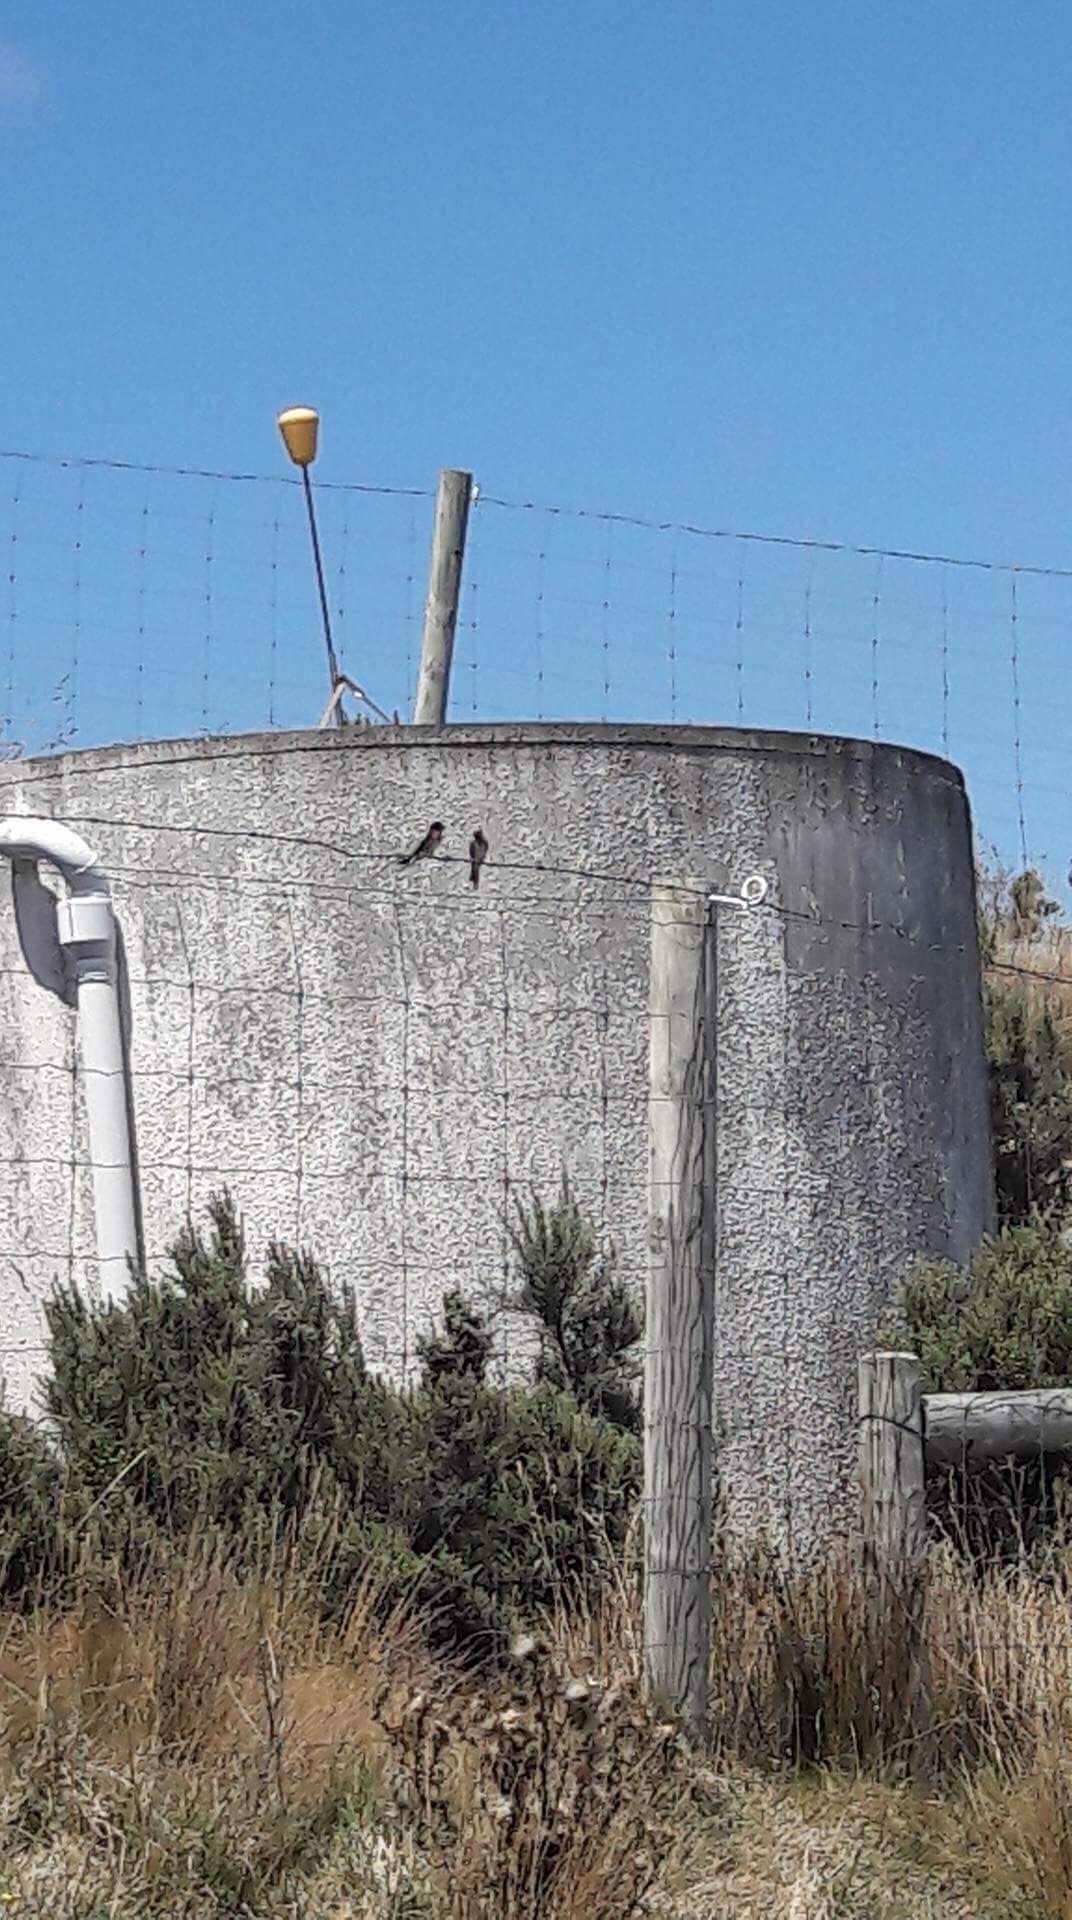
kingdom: Animalia
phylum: Chordata
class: Aves
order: Passeriformes
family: Hirundinidae
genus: Hirundo
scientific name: Hirundo neoxena
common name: Welcome swallow
